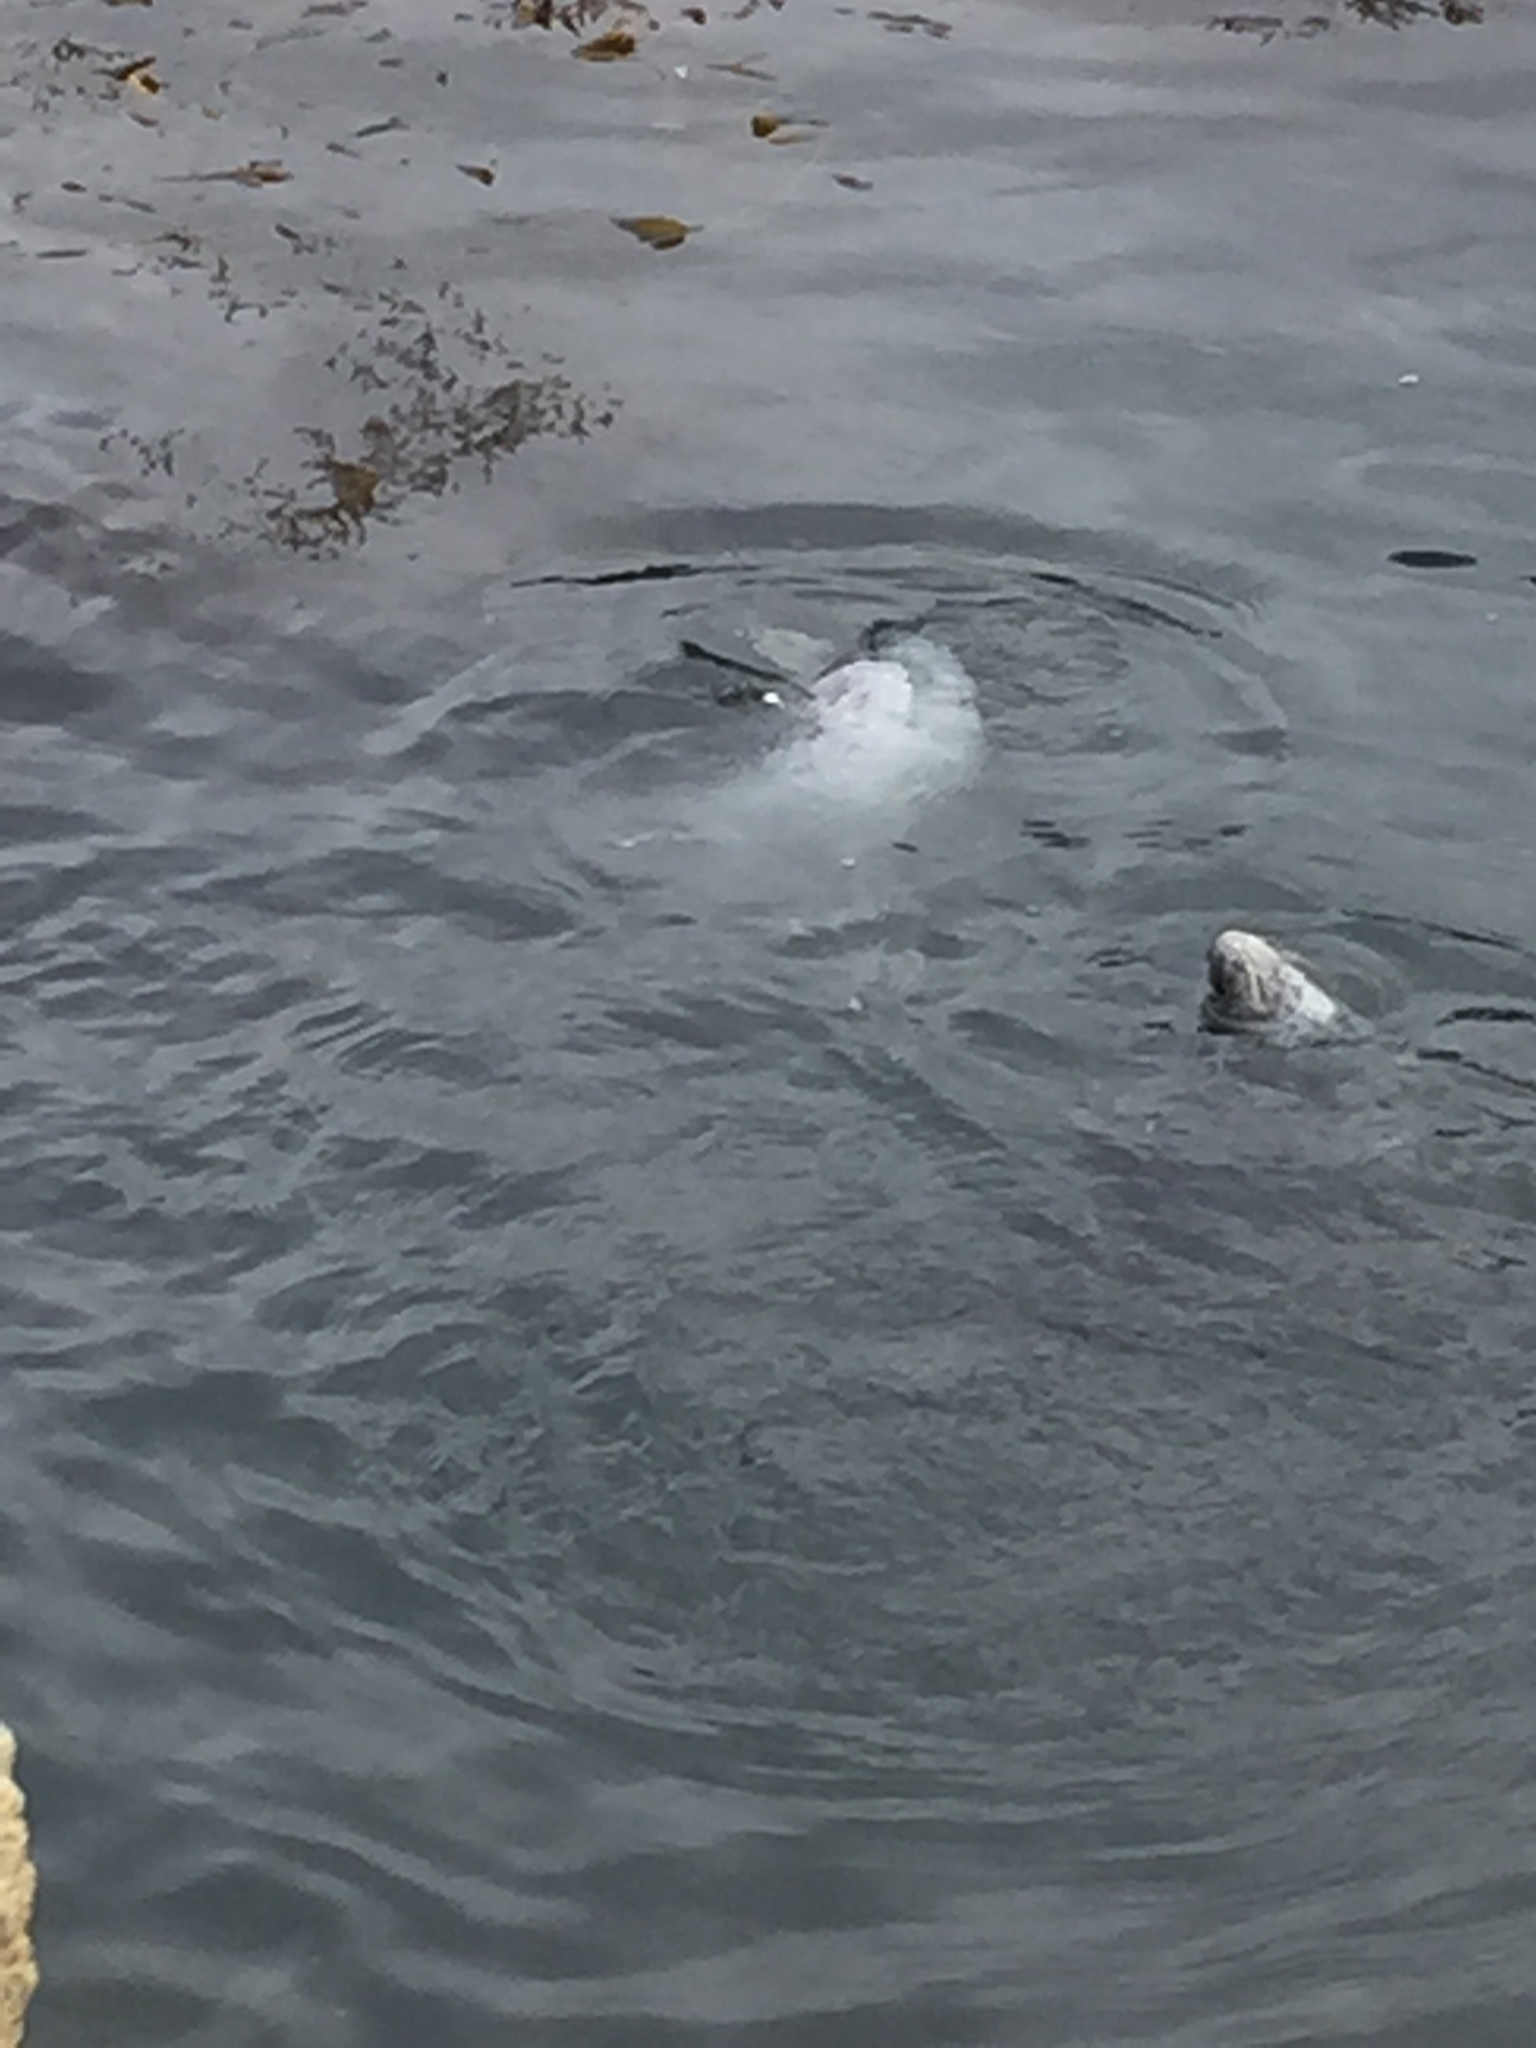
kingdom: Animalia
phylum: Chordata
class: Mammalia
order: Carnivora
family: Phocidae
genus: Phoca
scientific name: Phoca vitulina
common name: Harbor seal
